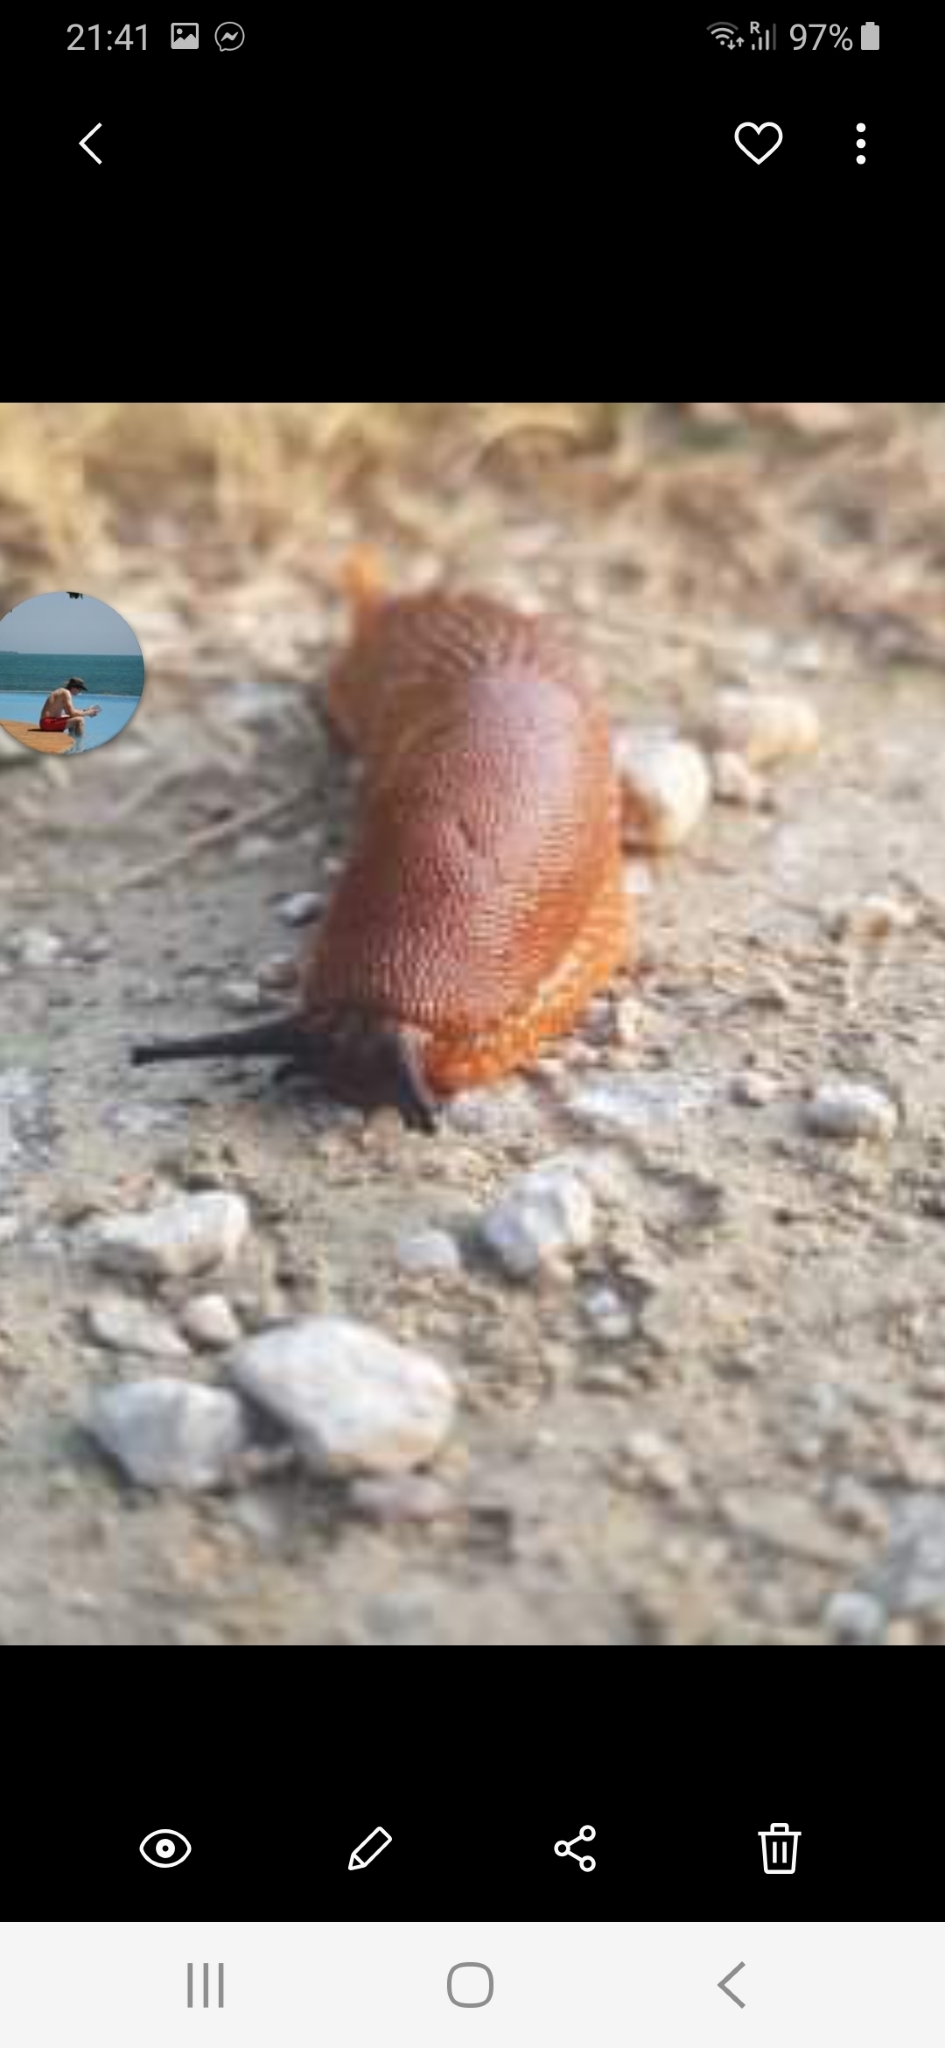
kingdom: Animalia
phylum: Mollusca
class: Gastropoda
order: Stylommatophora
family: Arionidae
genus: Arion
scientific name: Arion rufus
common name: Chocolate arion
